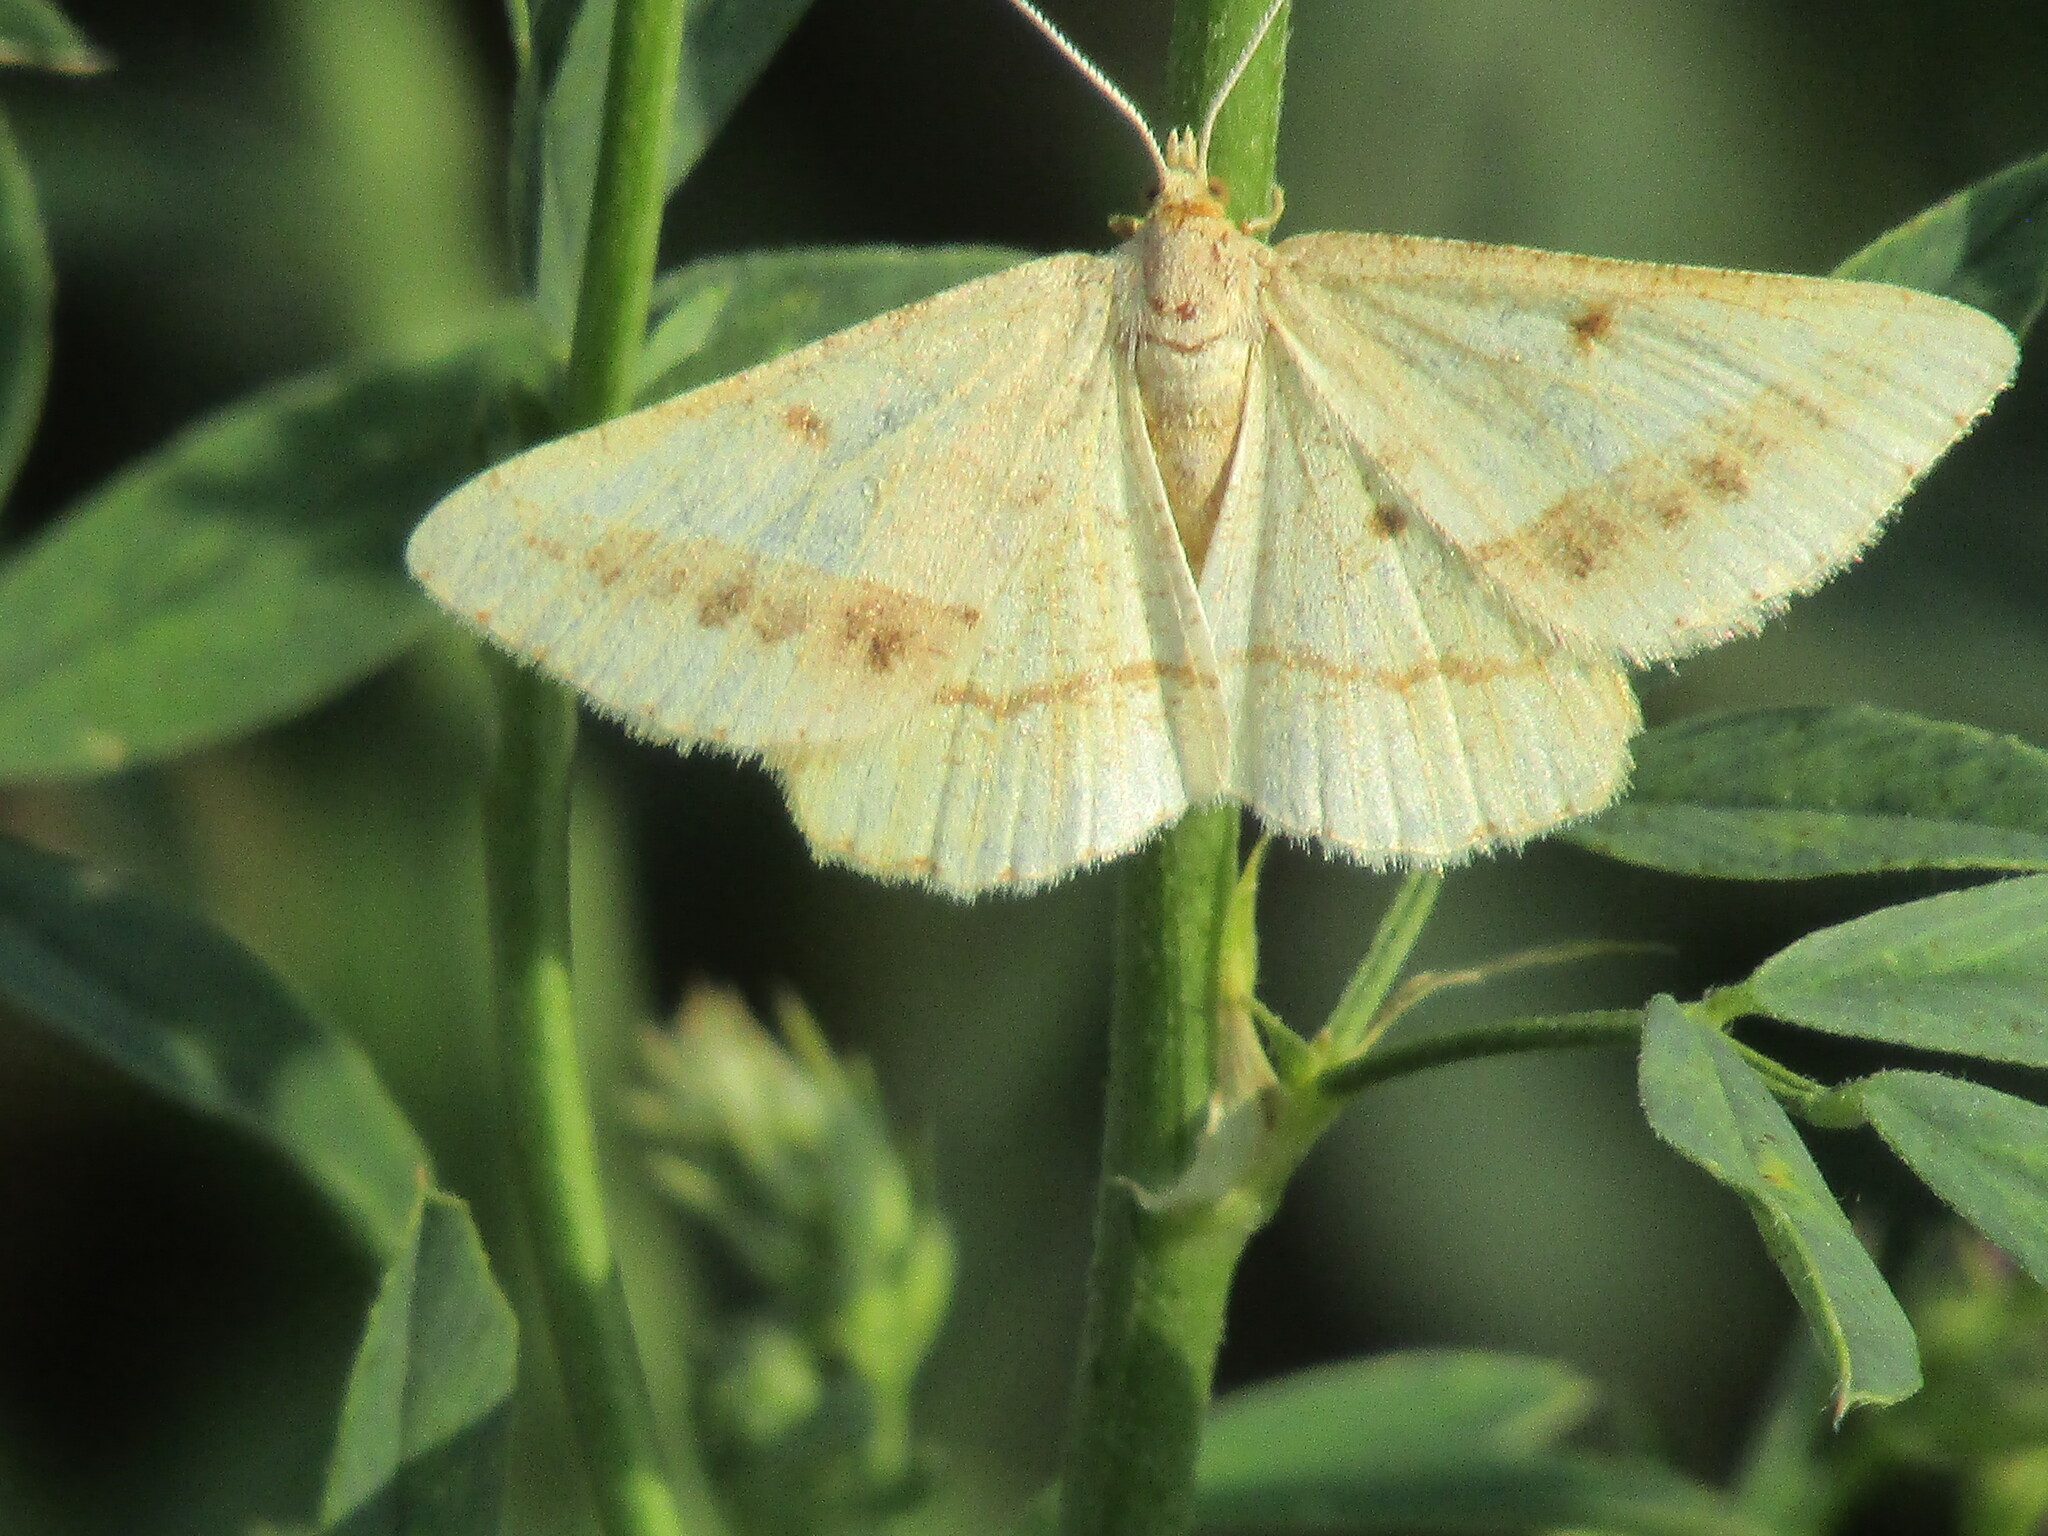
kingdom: Animalia
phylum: Arthropoda
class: Insecta
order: Lepidoptera
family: Geometridae
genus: Tephrina
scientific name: Tephrina arenacearia
